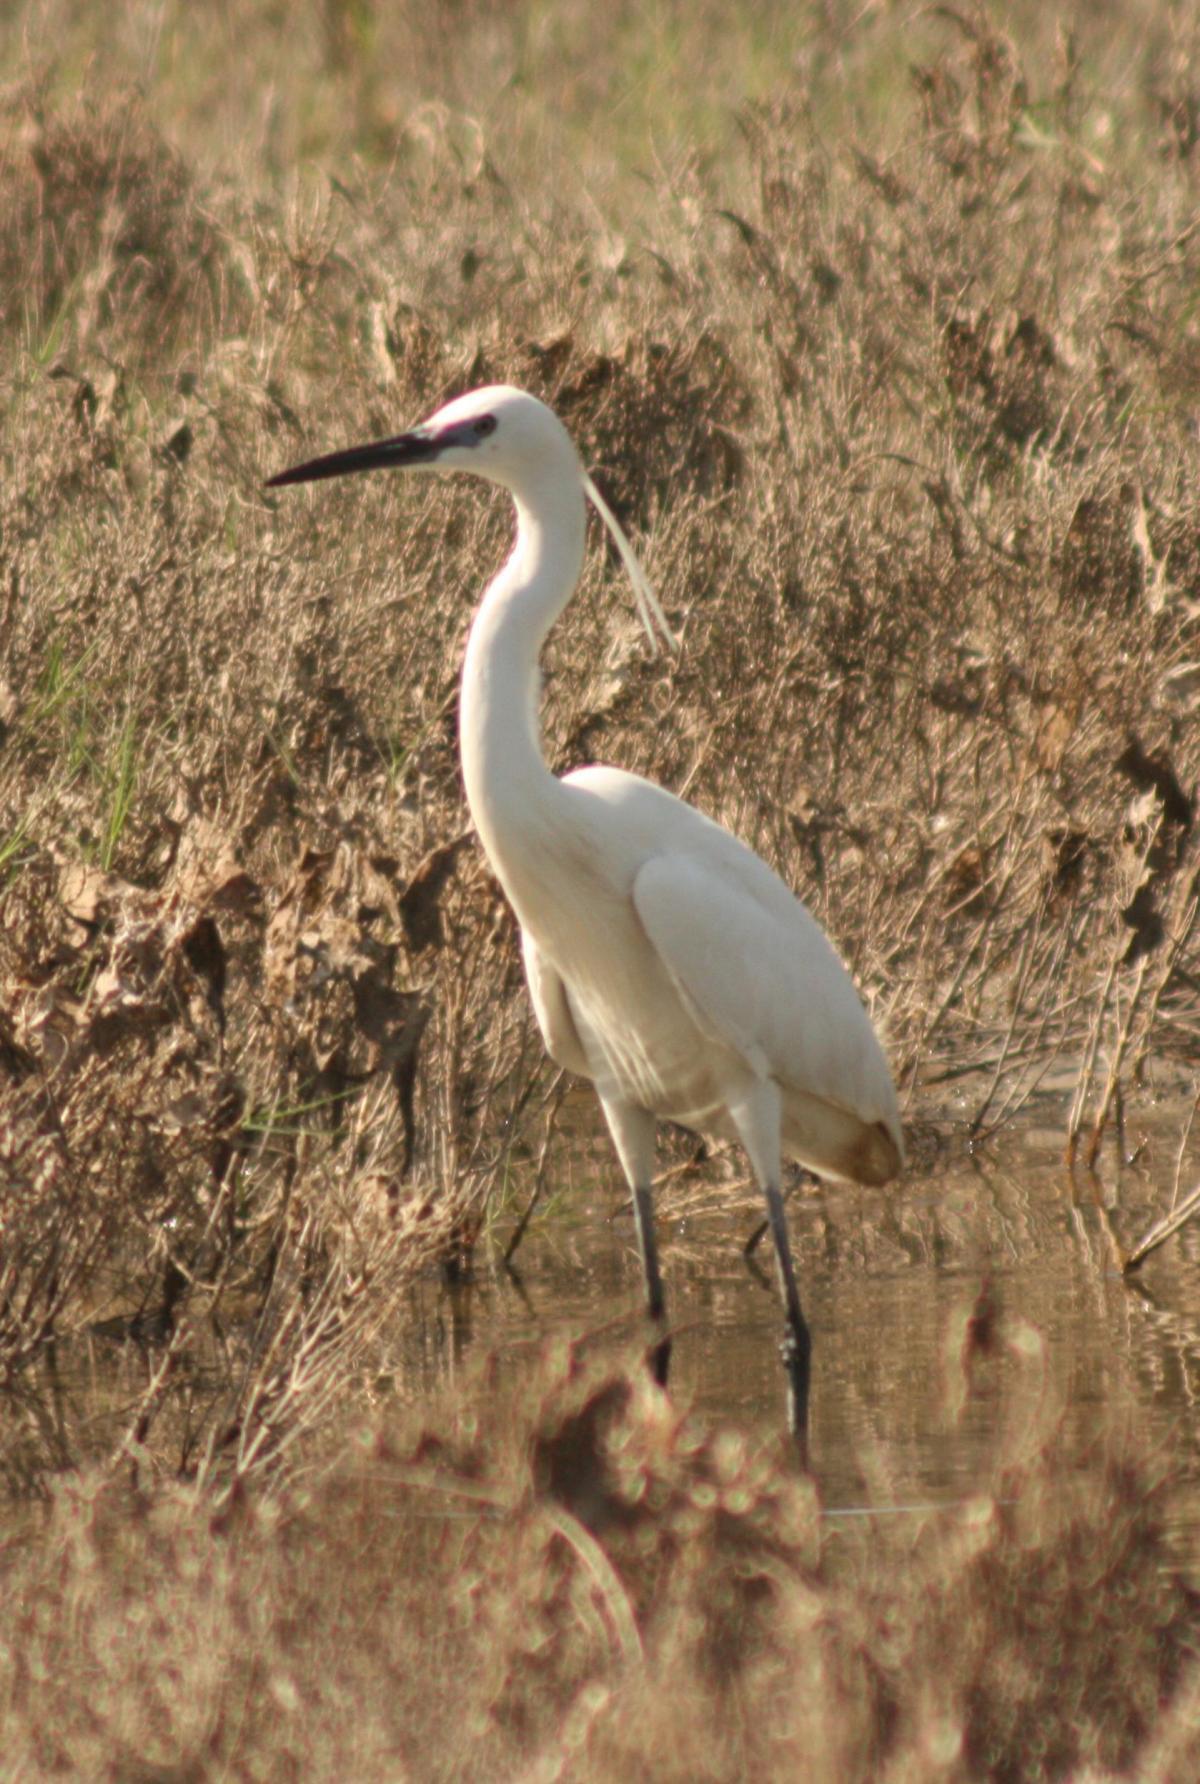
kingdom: Animalia
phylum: Chordata
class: Aves
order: Pelecaniformes
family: Ardeidae
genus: Egretta
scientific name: Egretta garzetta
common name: Little egret
